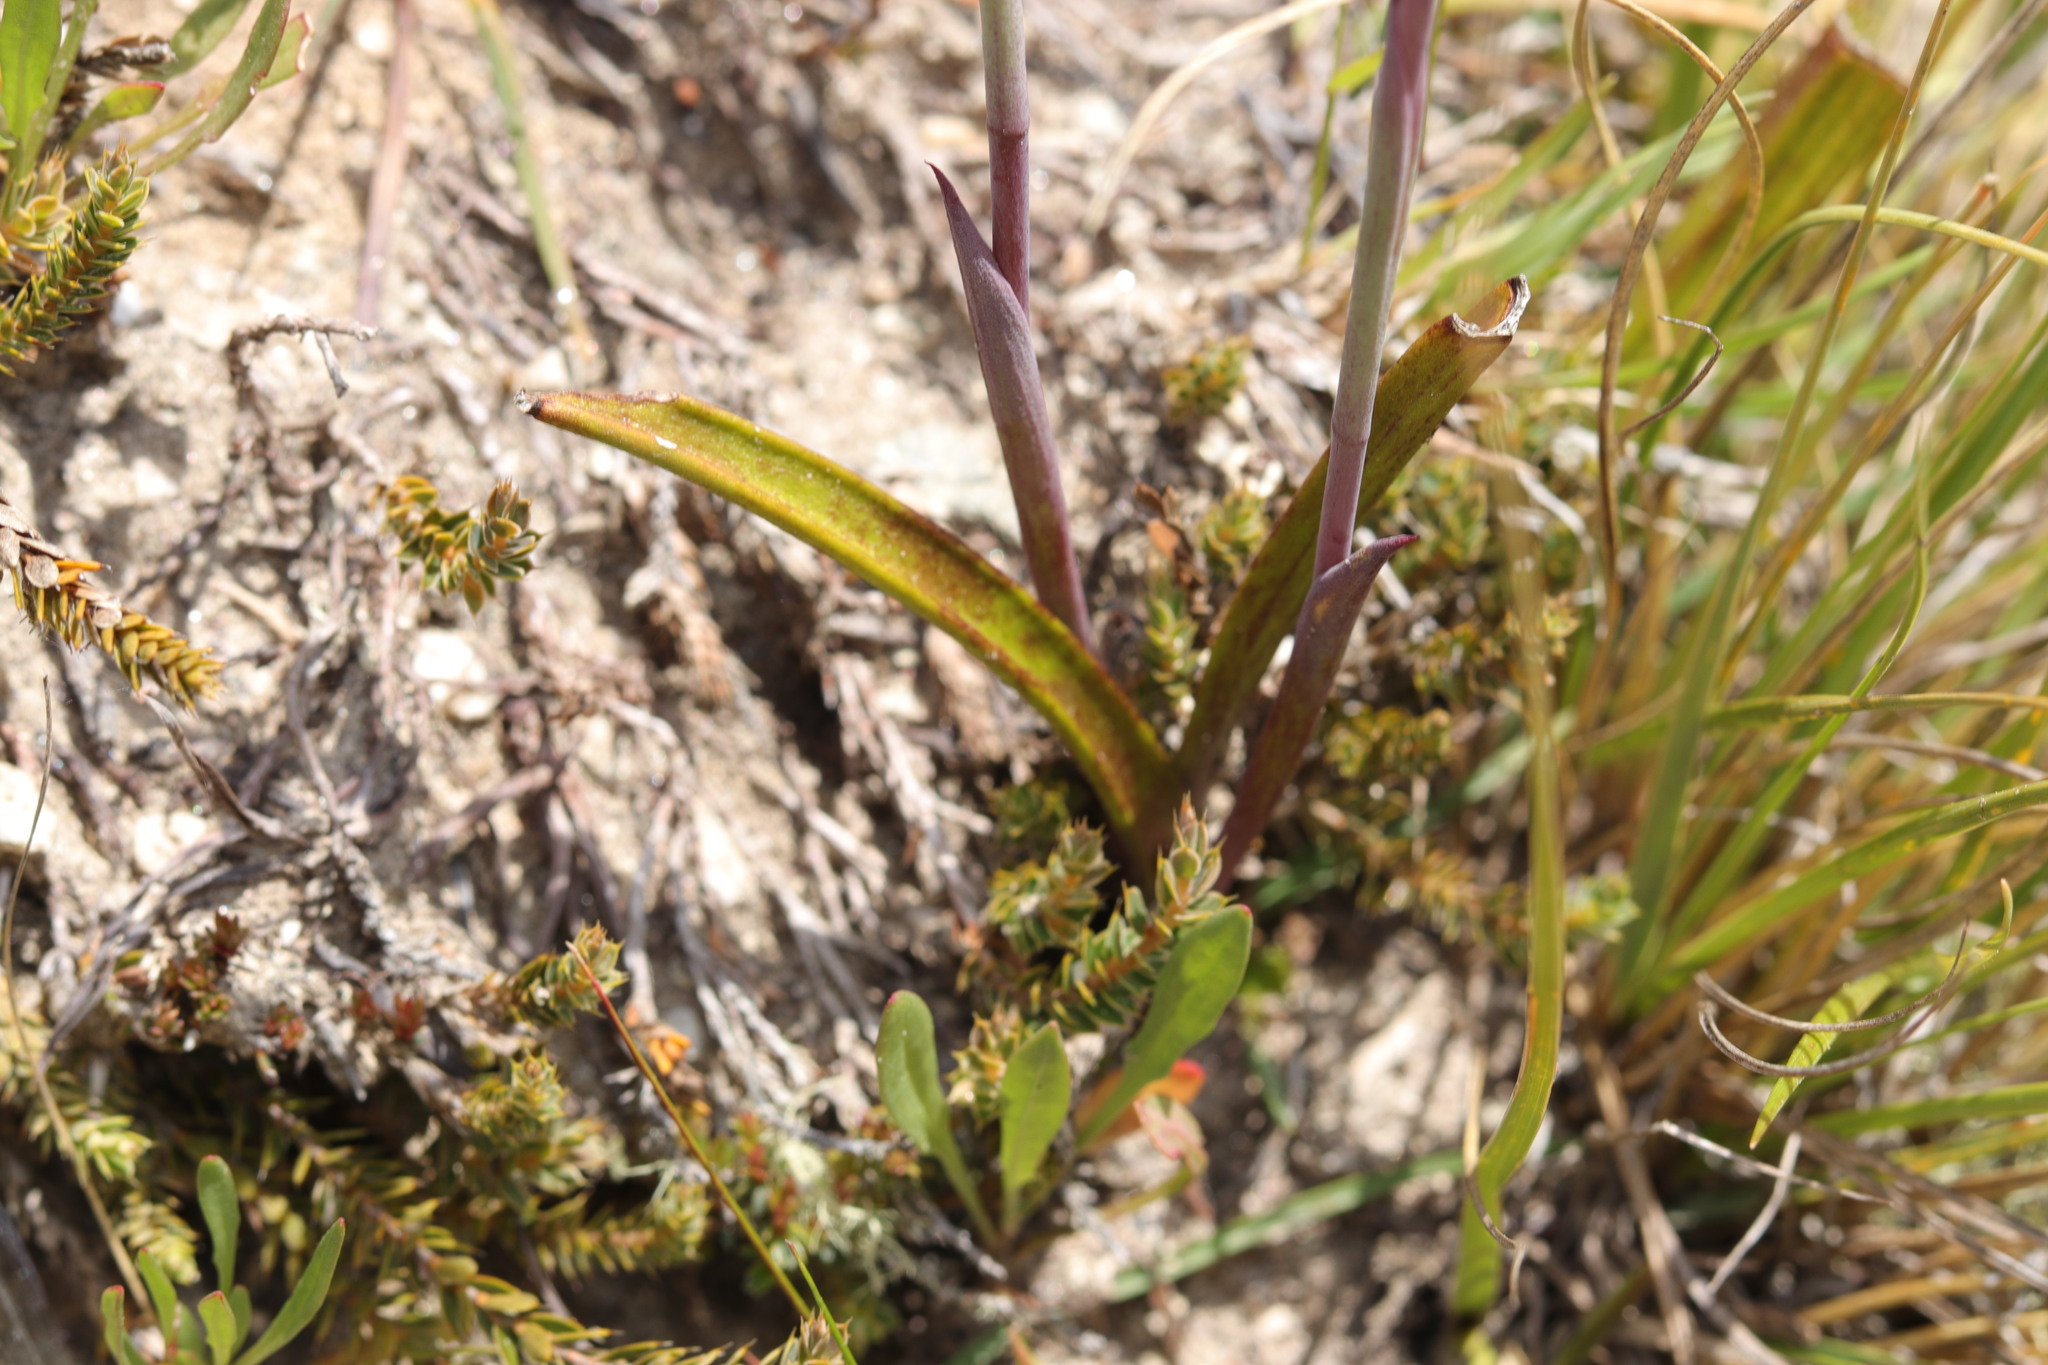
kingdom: Plantae
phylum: Tracheophyta
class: Liliopsida
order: Asparagales
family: Orchidaceae
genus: Thelymitra
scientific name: Thelymitra nervosa
